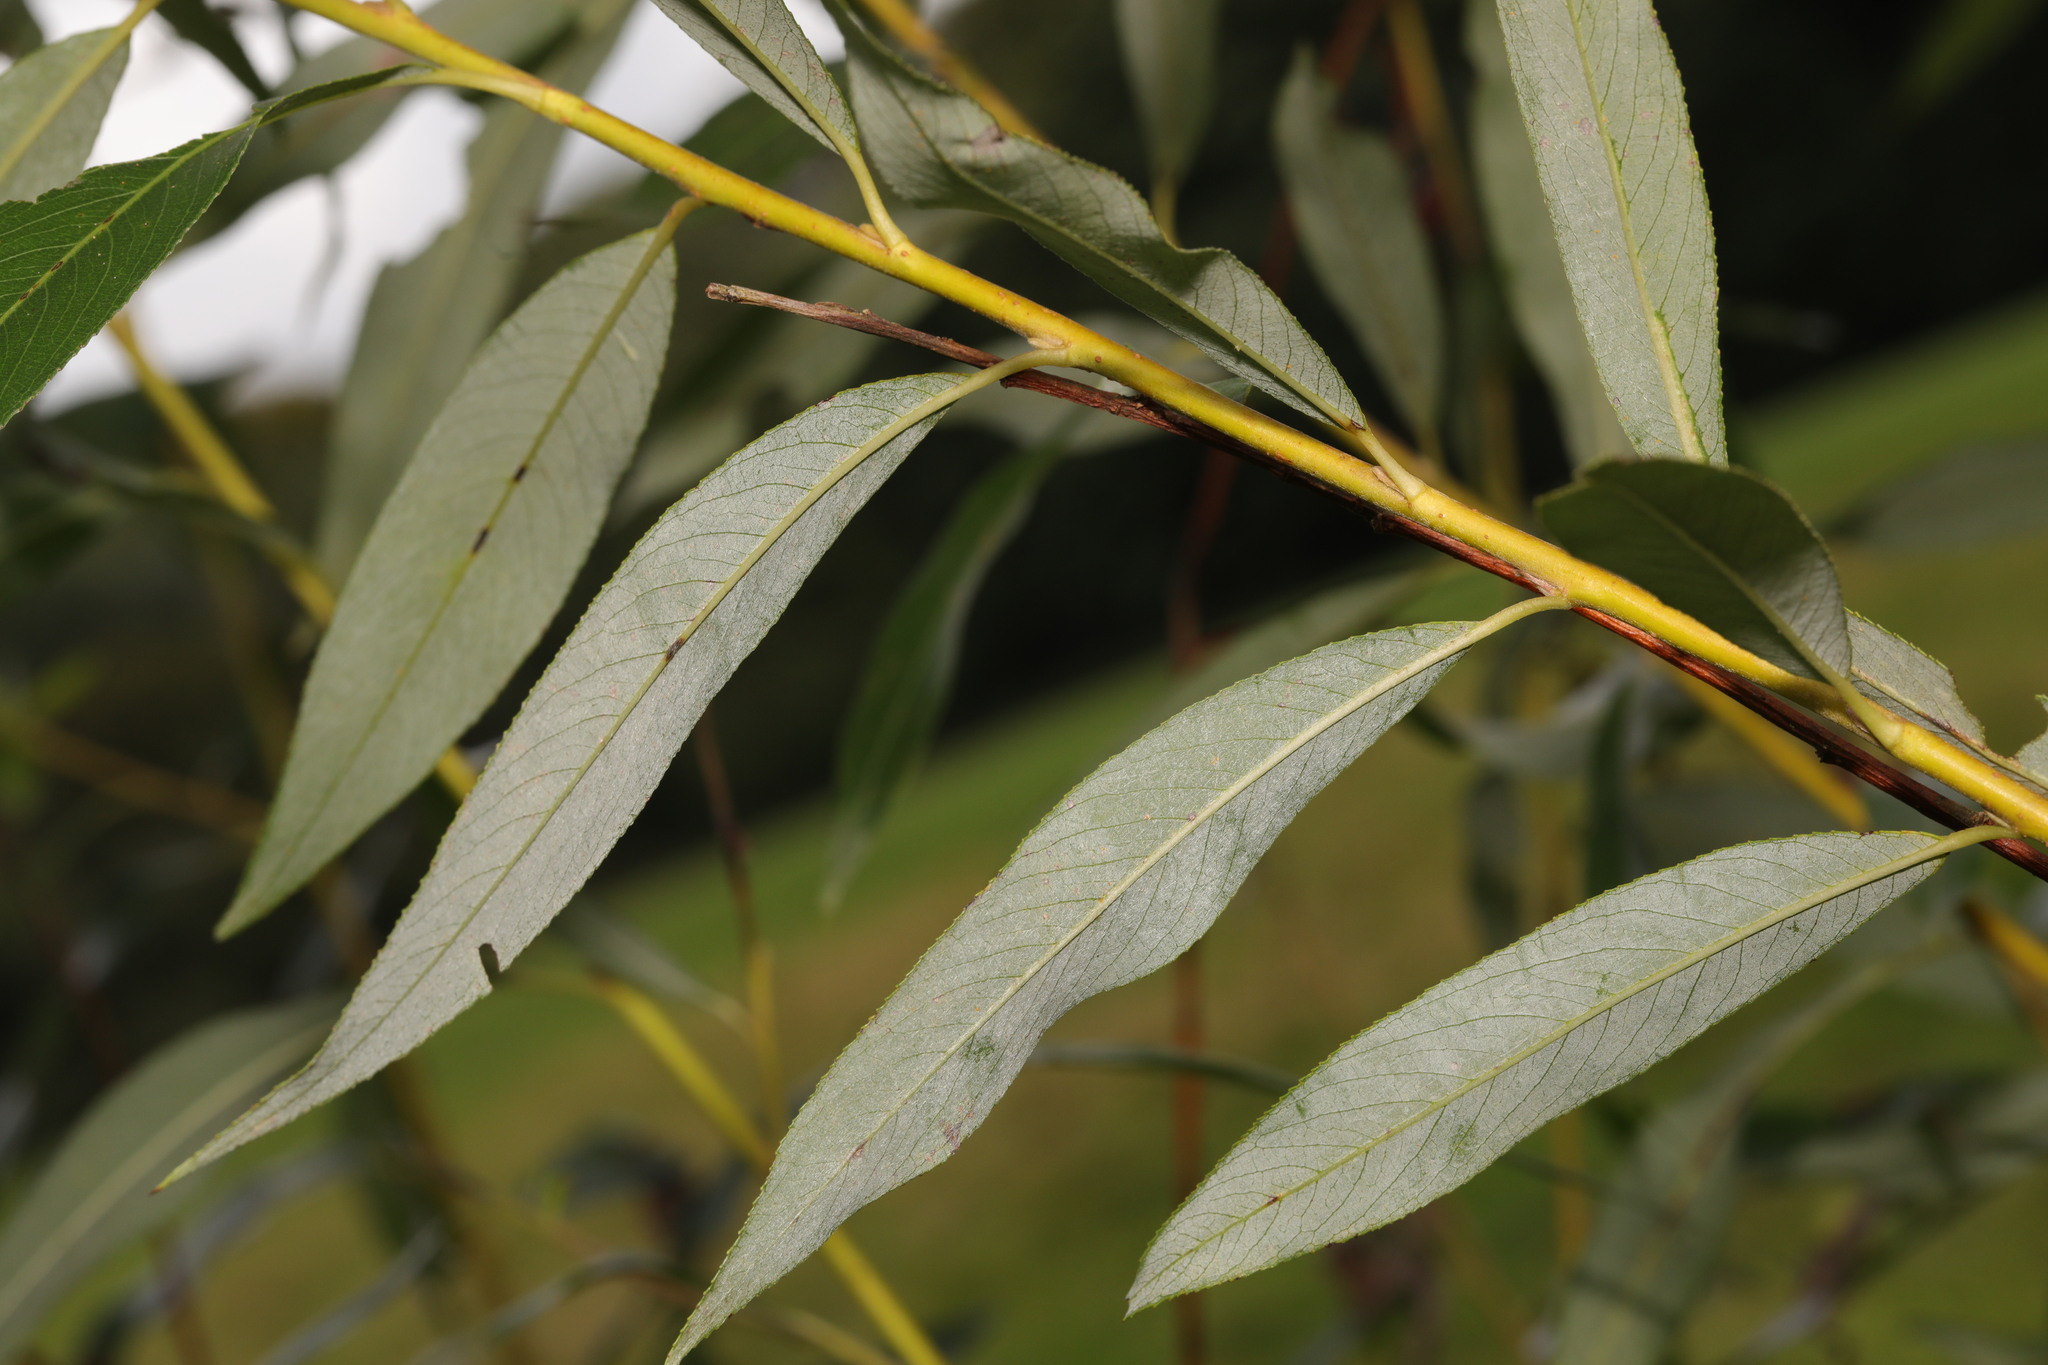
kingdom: Plantae
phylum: Tracheophyta
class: Magnoliopsida
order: Malpighiales
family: Salicaceae
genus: Salix
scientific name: Salix fragilis
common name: Crack willow
